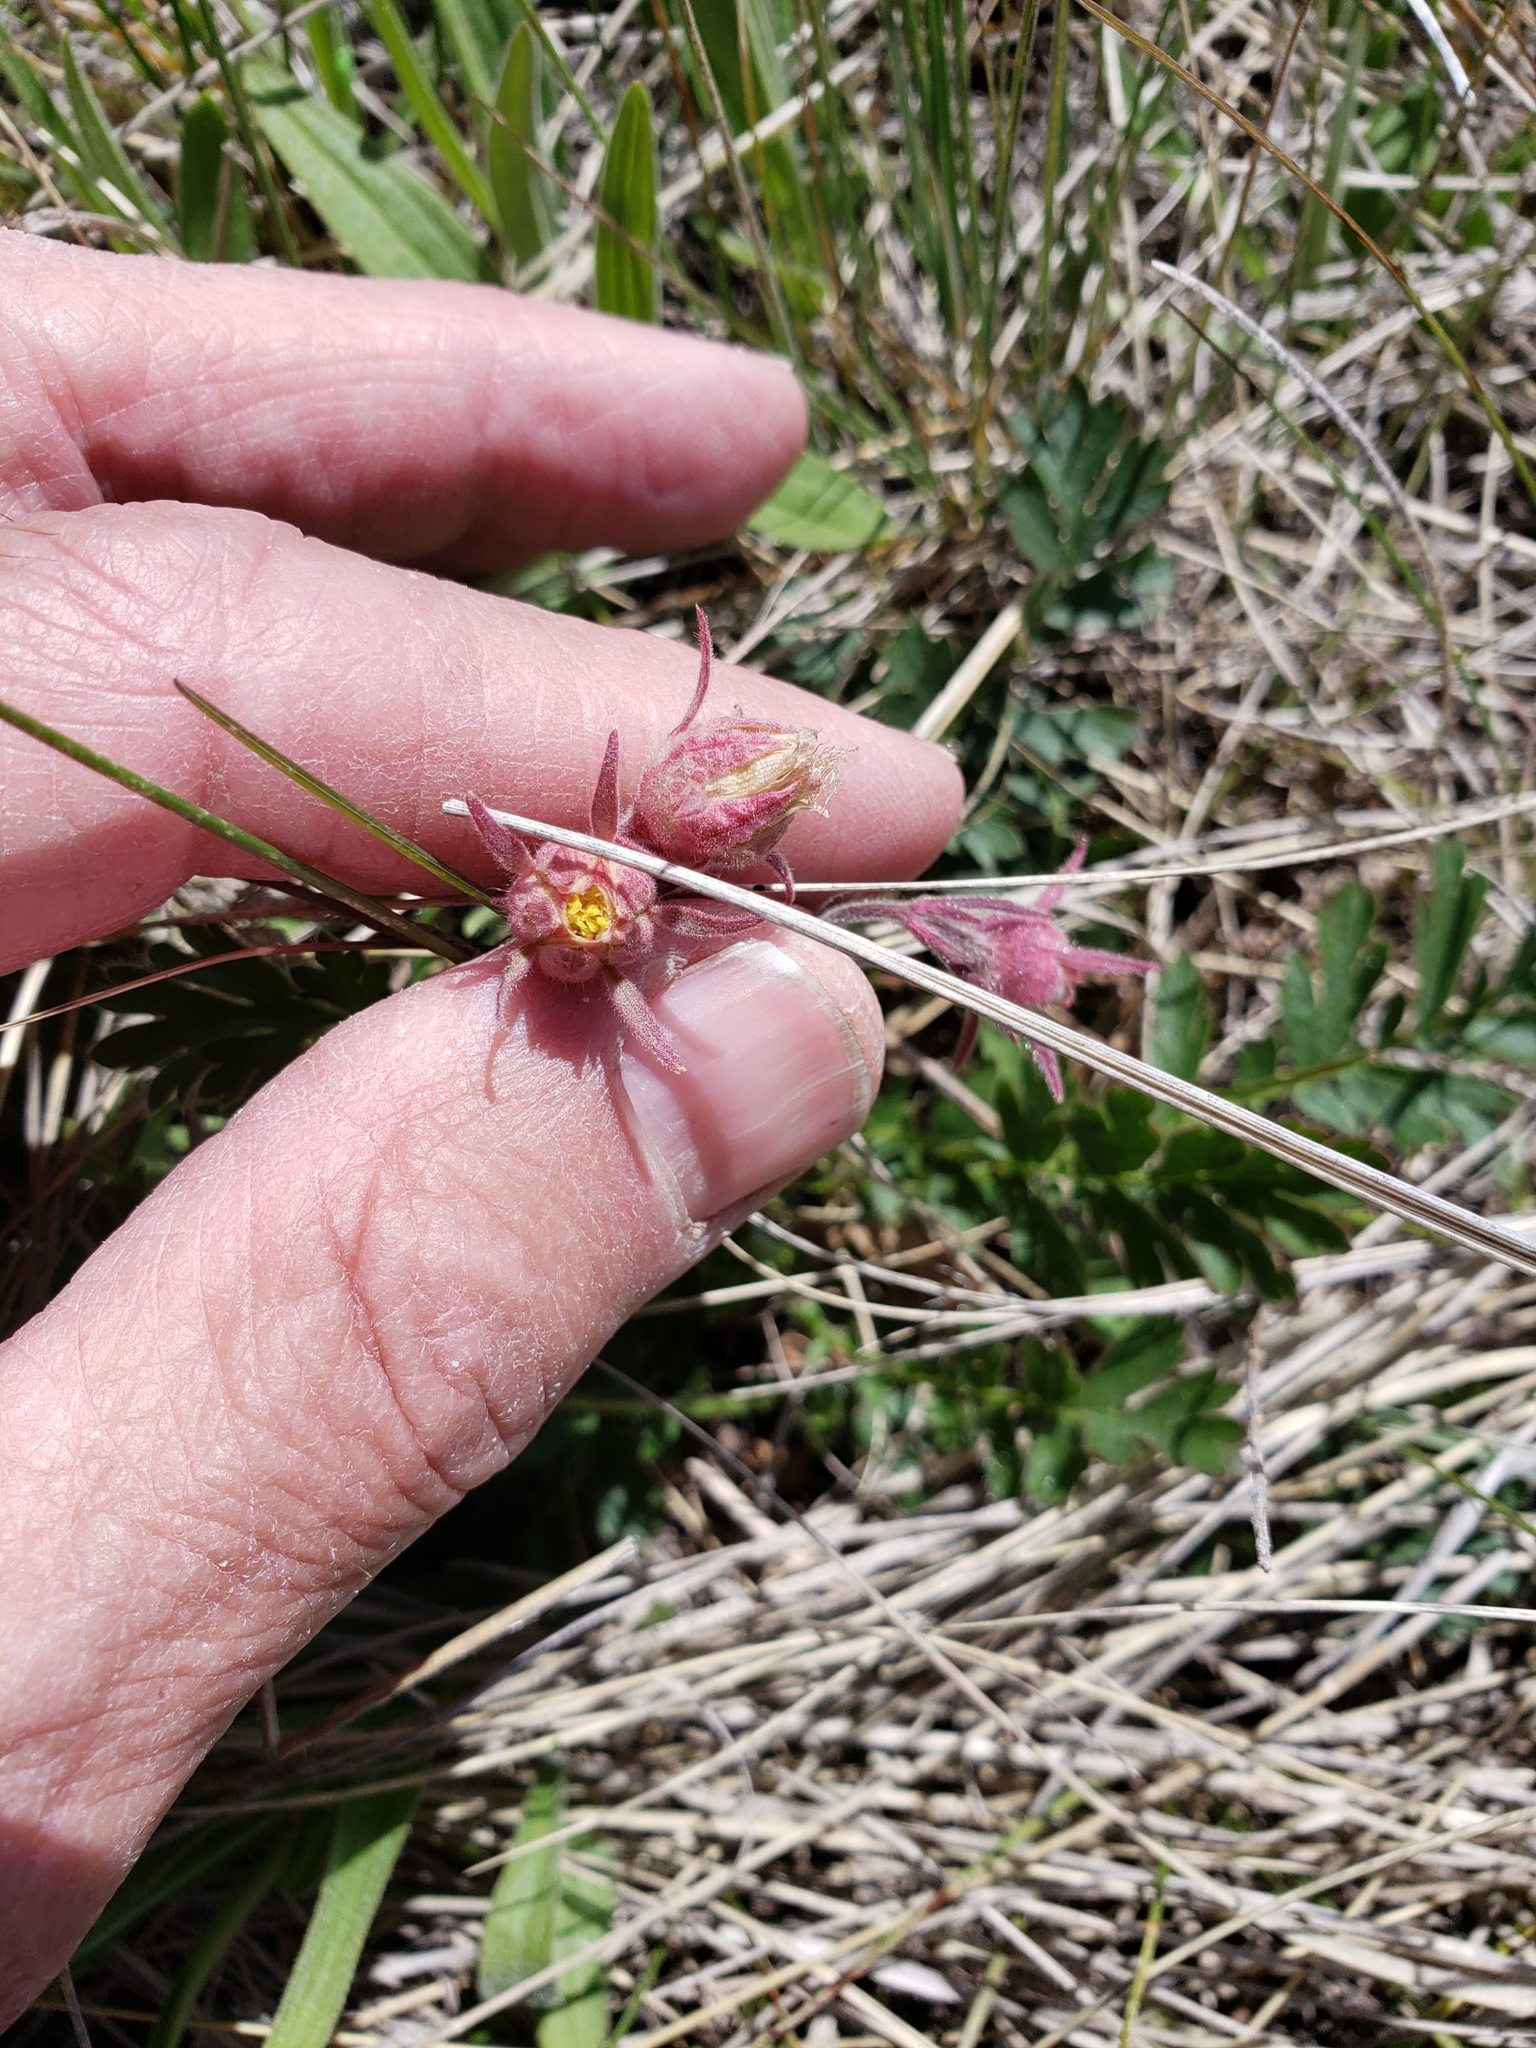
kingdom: Plantae
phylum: Tracheophyta
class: Magnoliopsida
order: Rosales
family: Rosaceae
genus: Geum
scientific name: Geum triflorum
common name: Old man's whiskers
